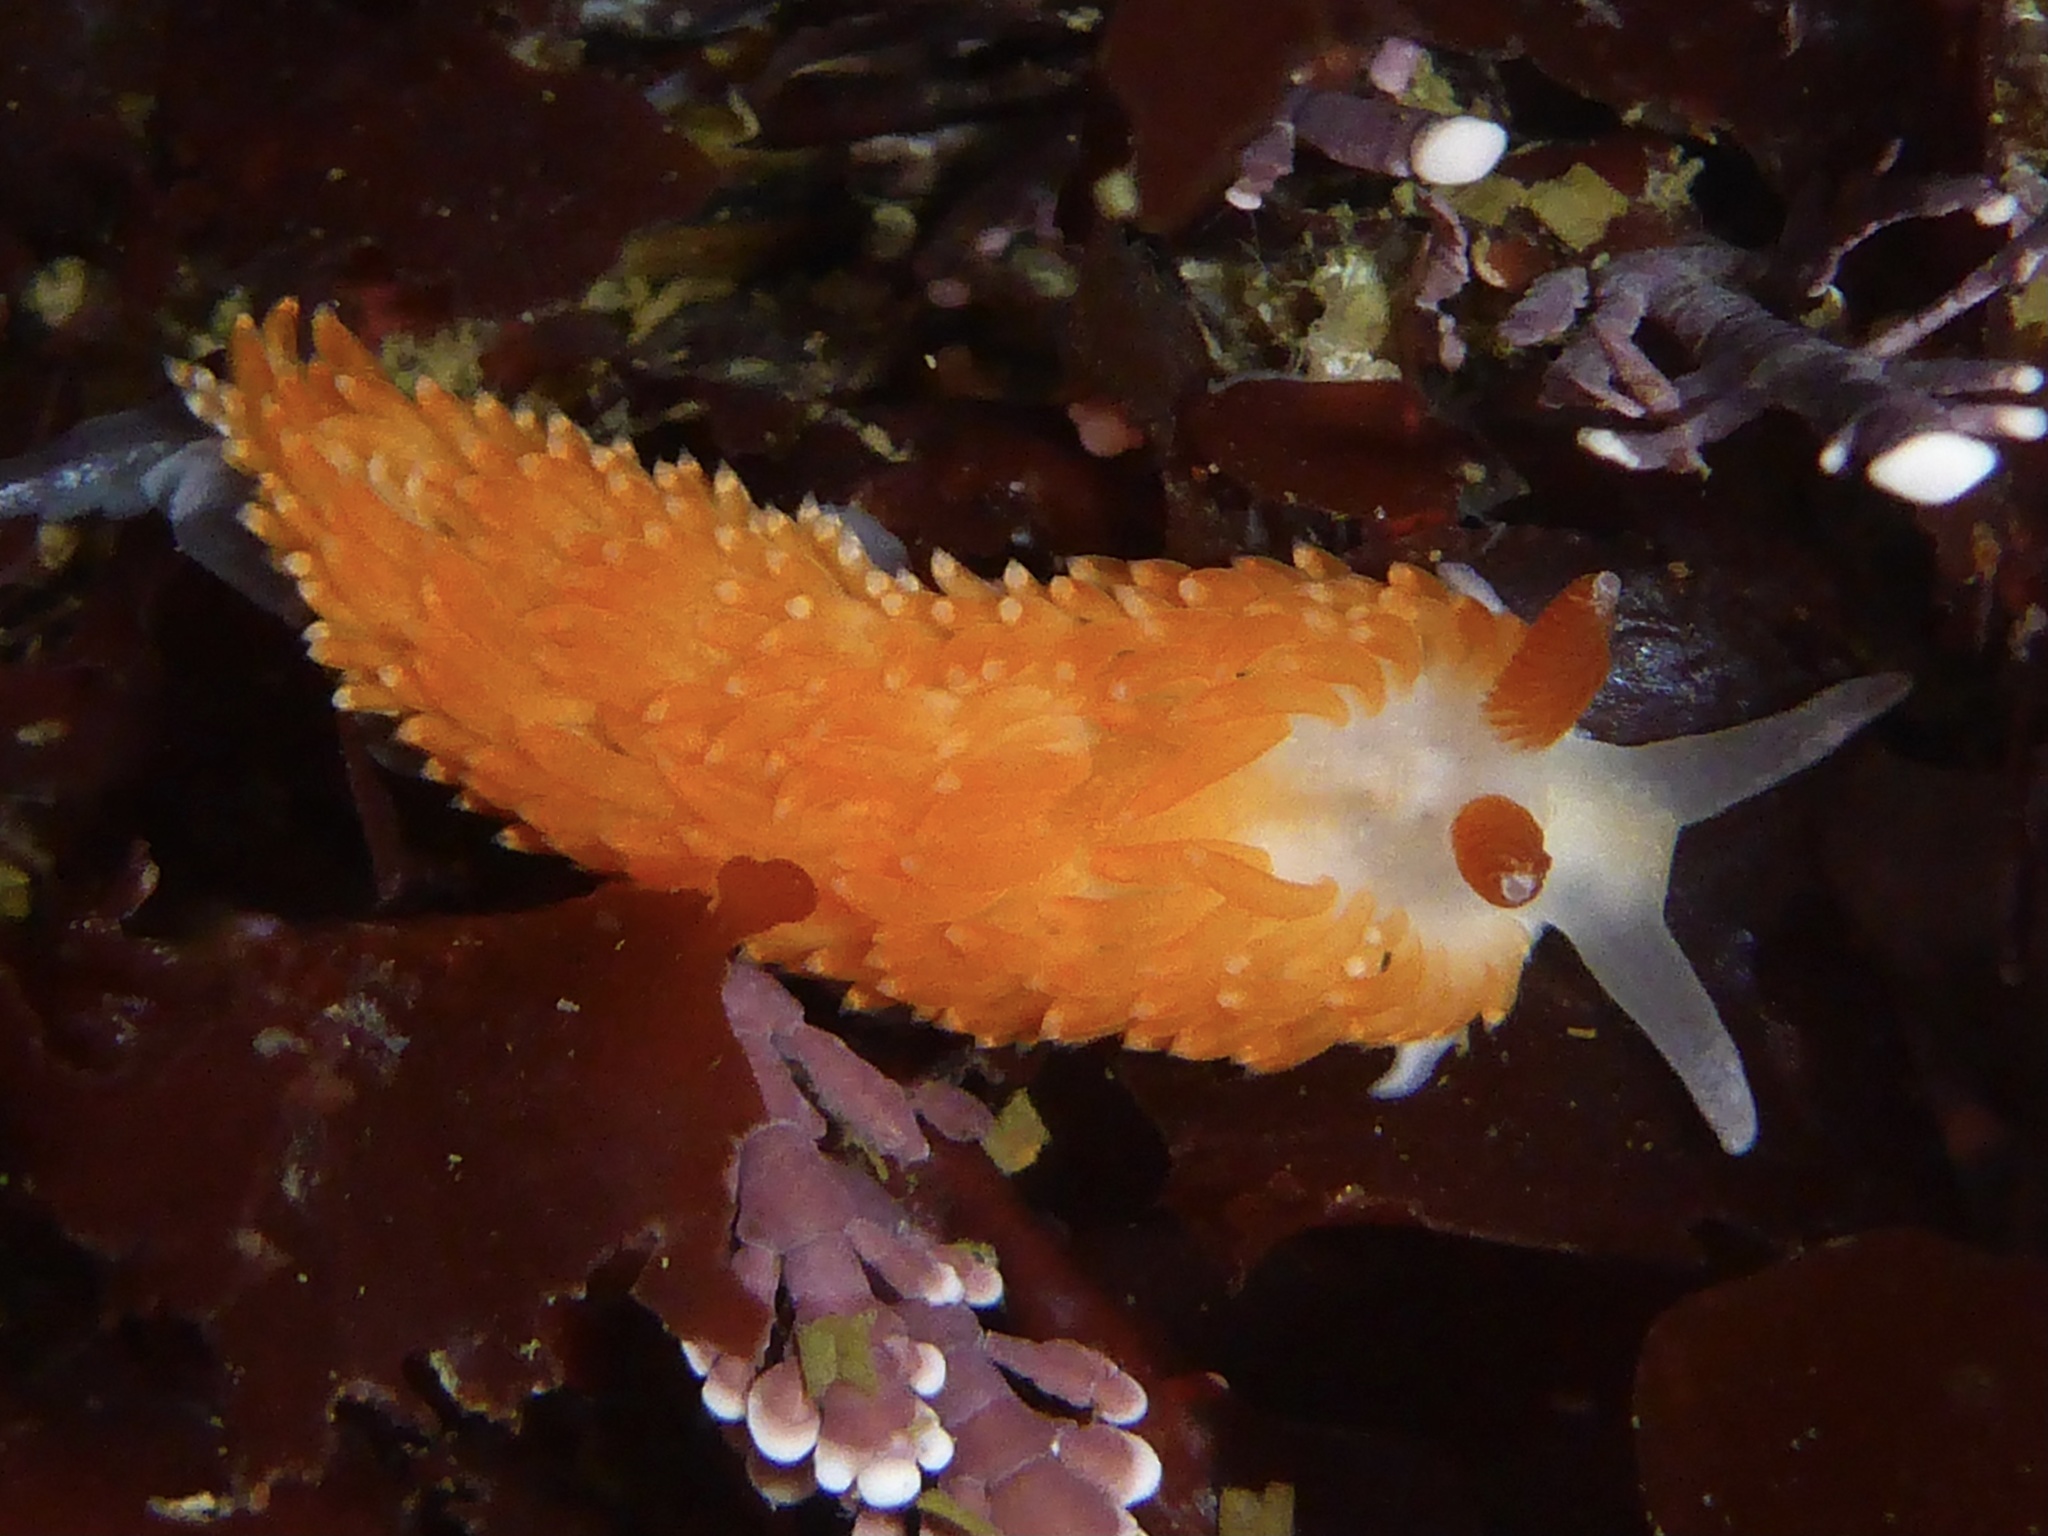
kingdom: Animalia
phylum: Mollusca
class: Gastropoda
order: Nudibranchia
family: Aeolidiidae
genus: Anteaeolidiella
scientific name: Anteaeolidiella oliviae
